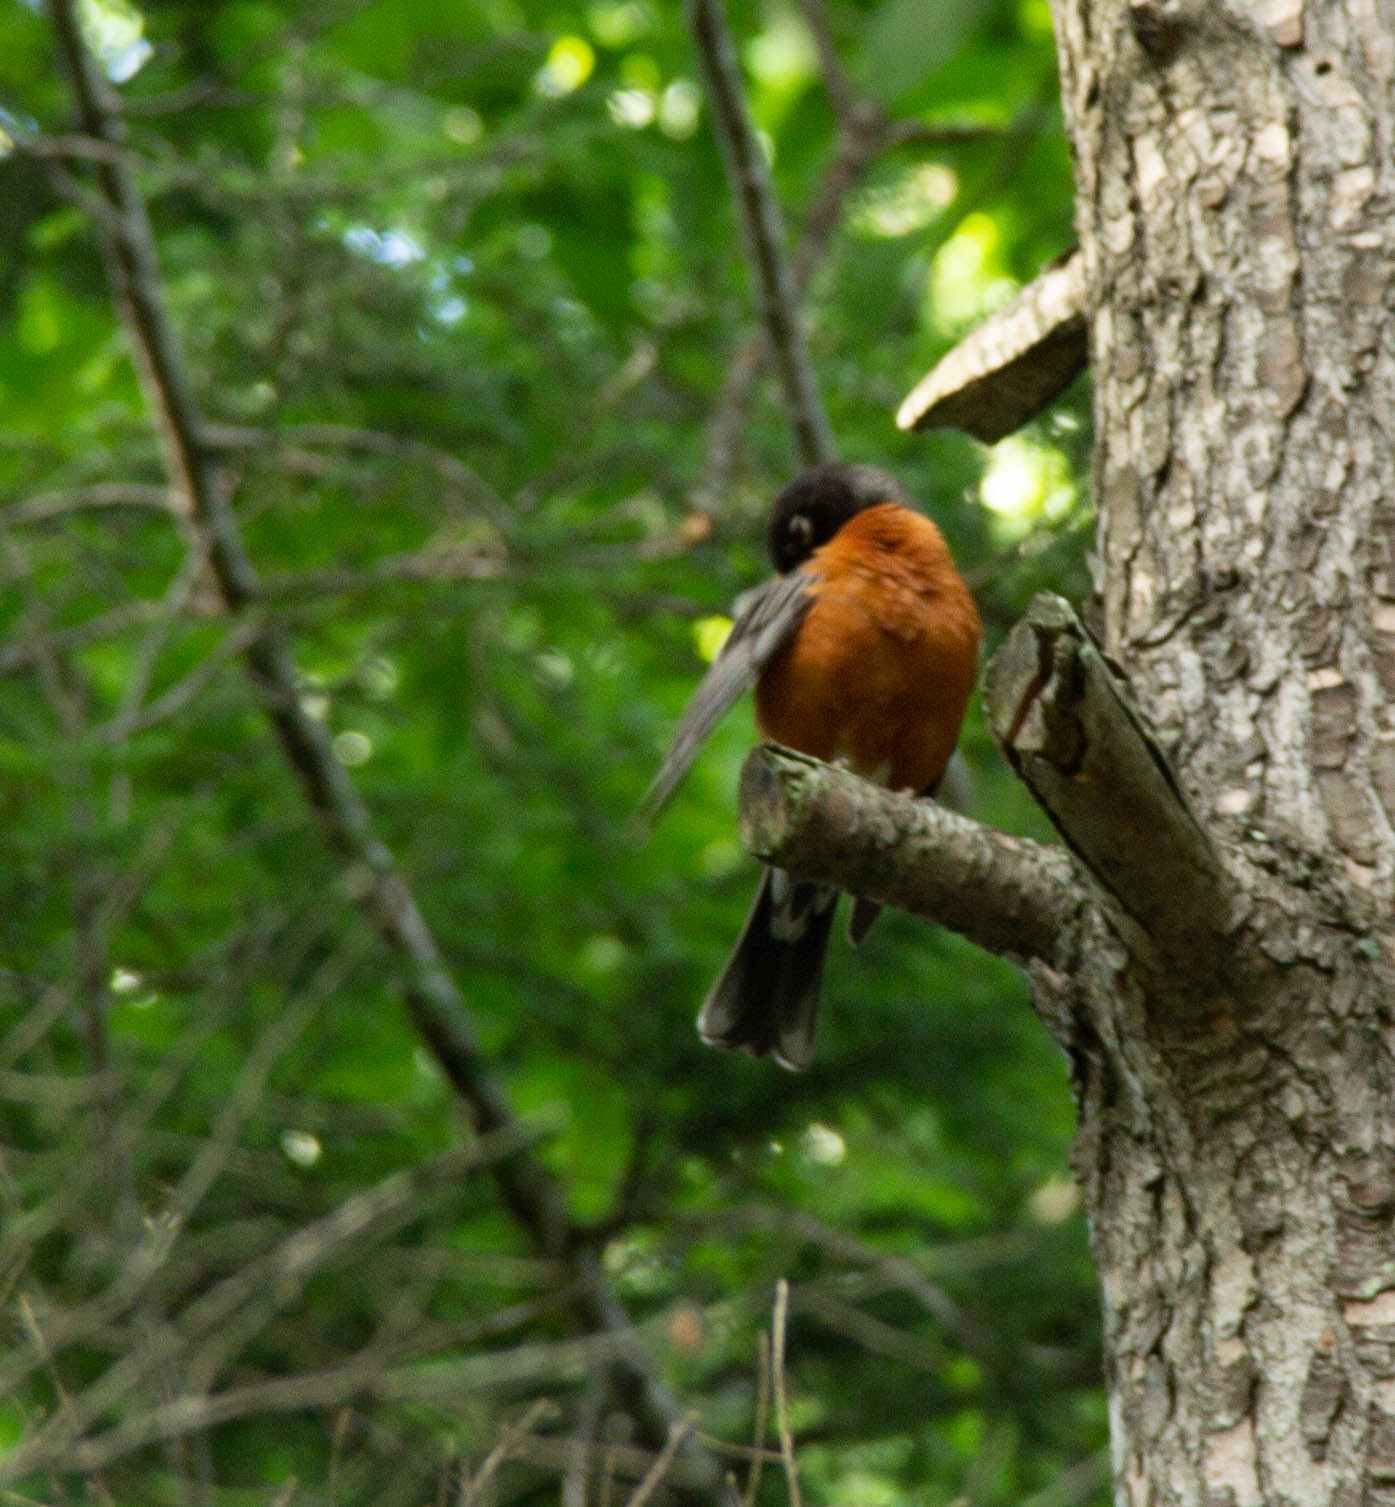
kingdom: Animalia
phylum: Chordata
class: Aves
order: Passeriformes
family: Turdidae
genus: Turdus
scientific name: Turdus migratorius
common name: American robin
